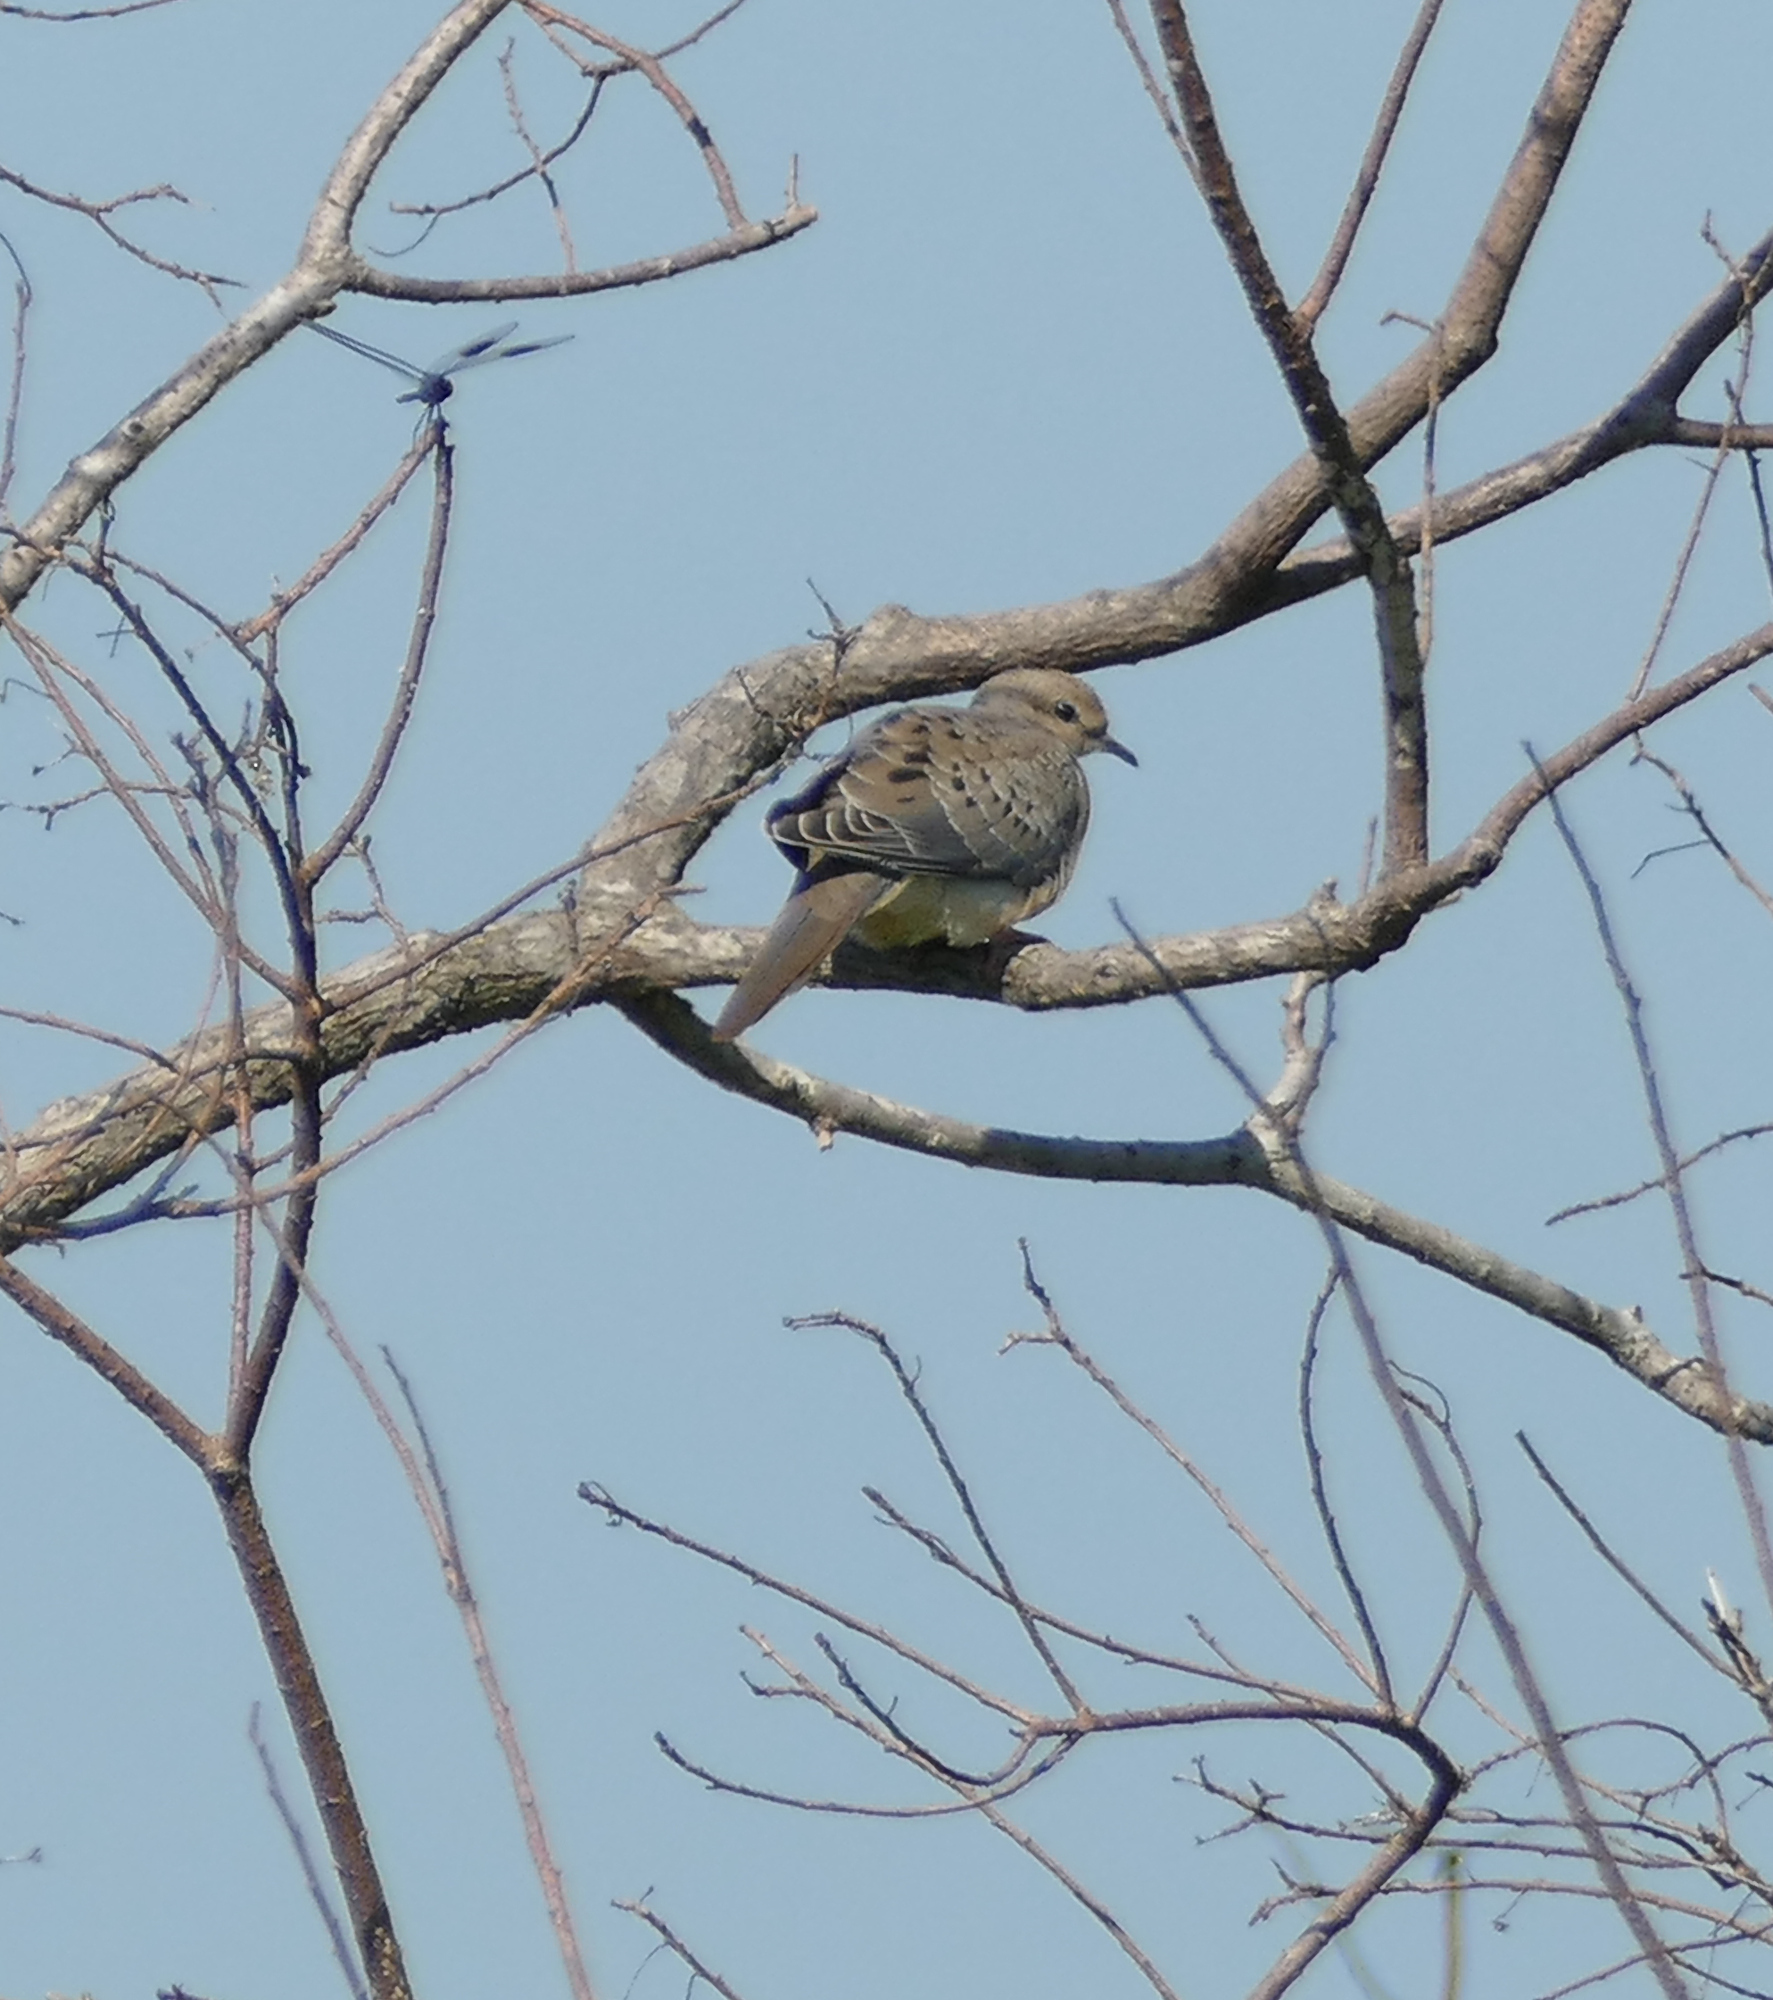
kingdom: Animalia
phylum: Chordata
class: Aves
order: Columbiformes
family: Columbidae
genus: Zenaida
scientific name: Zenaida macroura
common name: Mourning dove
